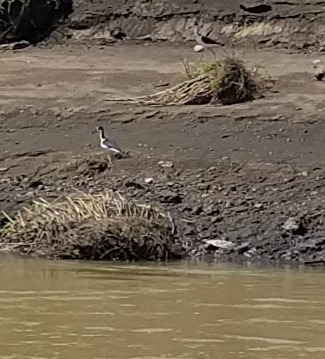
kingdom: Animalia
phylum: Chordata
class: Aves
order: Charadriiformes
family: Recurvirostridae
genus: Himantopus
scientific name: Himantopus mexicanus
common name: Black-necked stilt
